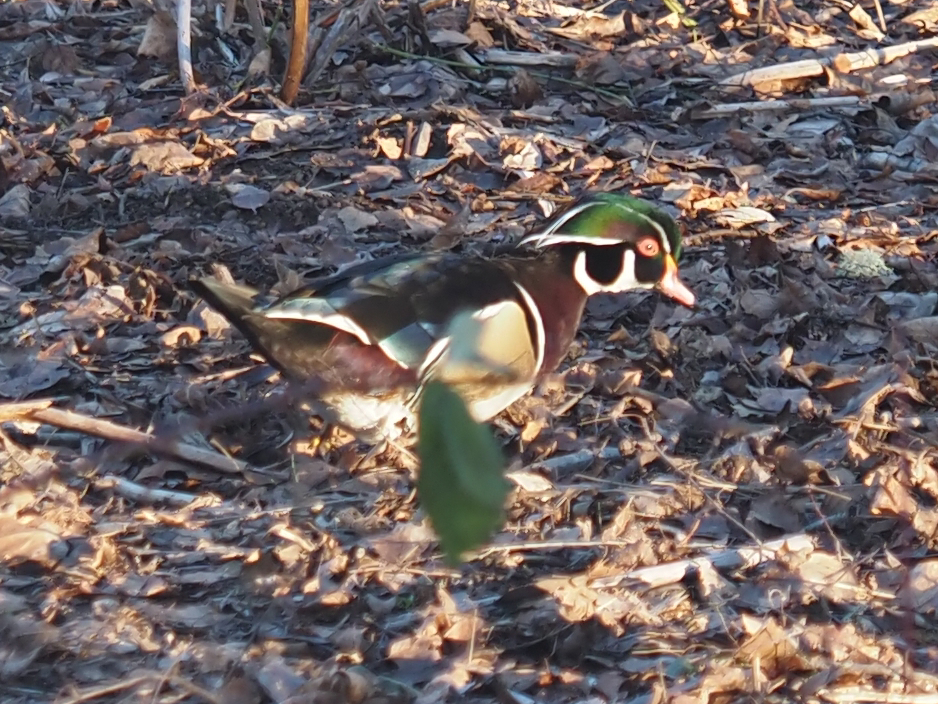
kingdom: Animalia
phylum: Chordata
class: Aves
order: Anseriformes
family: Anatidae
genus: Aix
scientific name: Aix sponsa
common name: Wood duck
